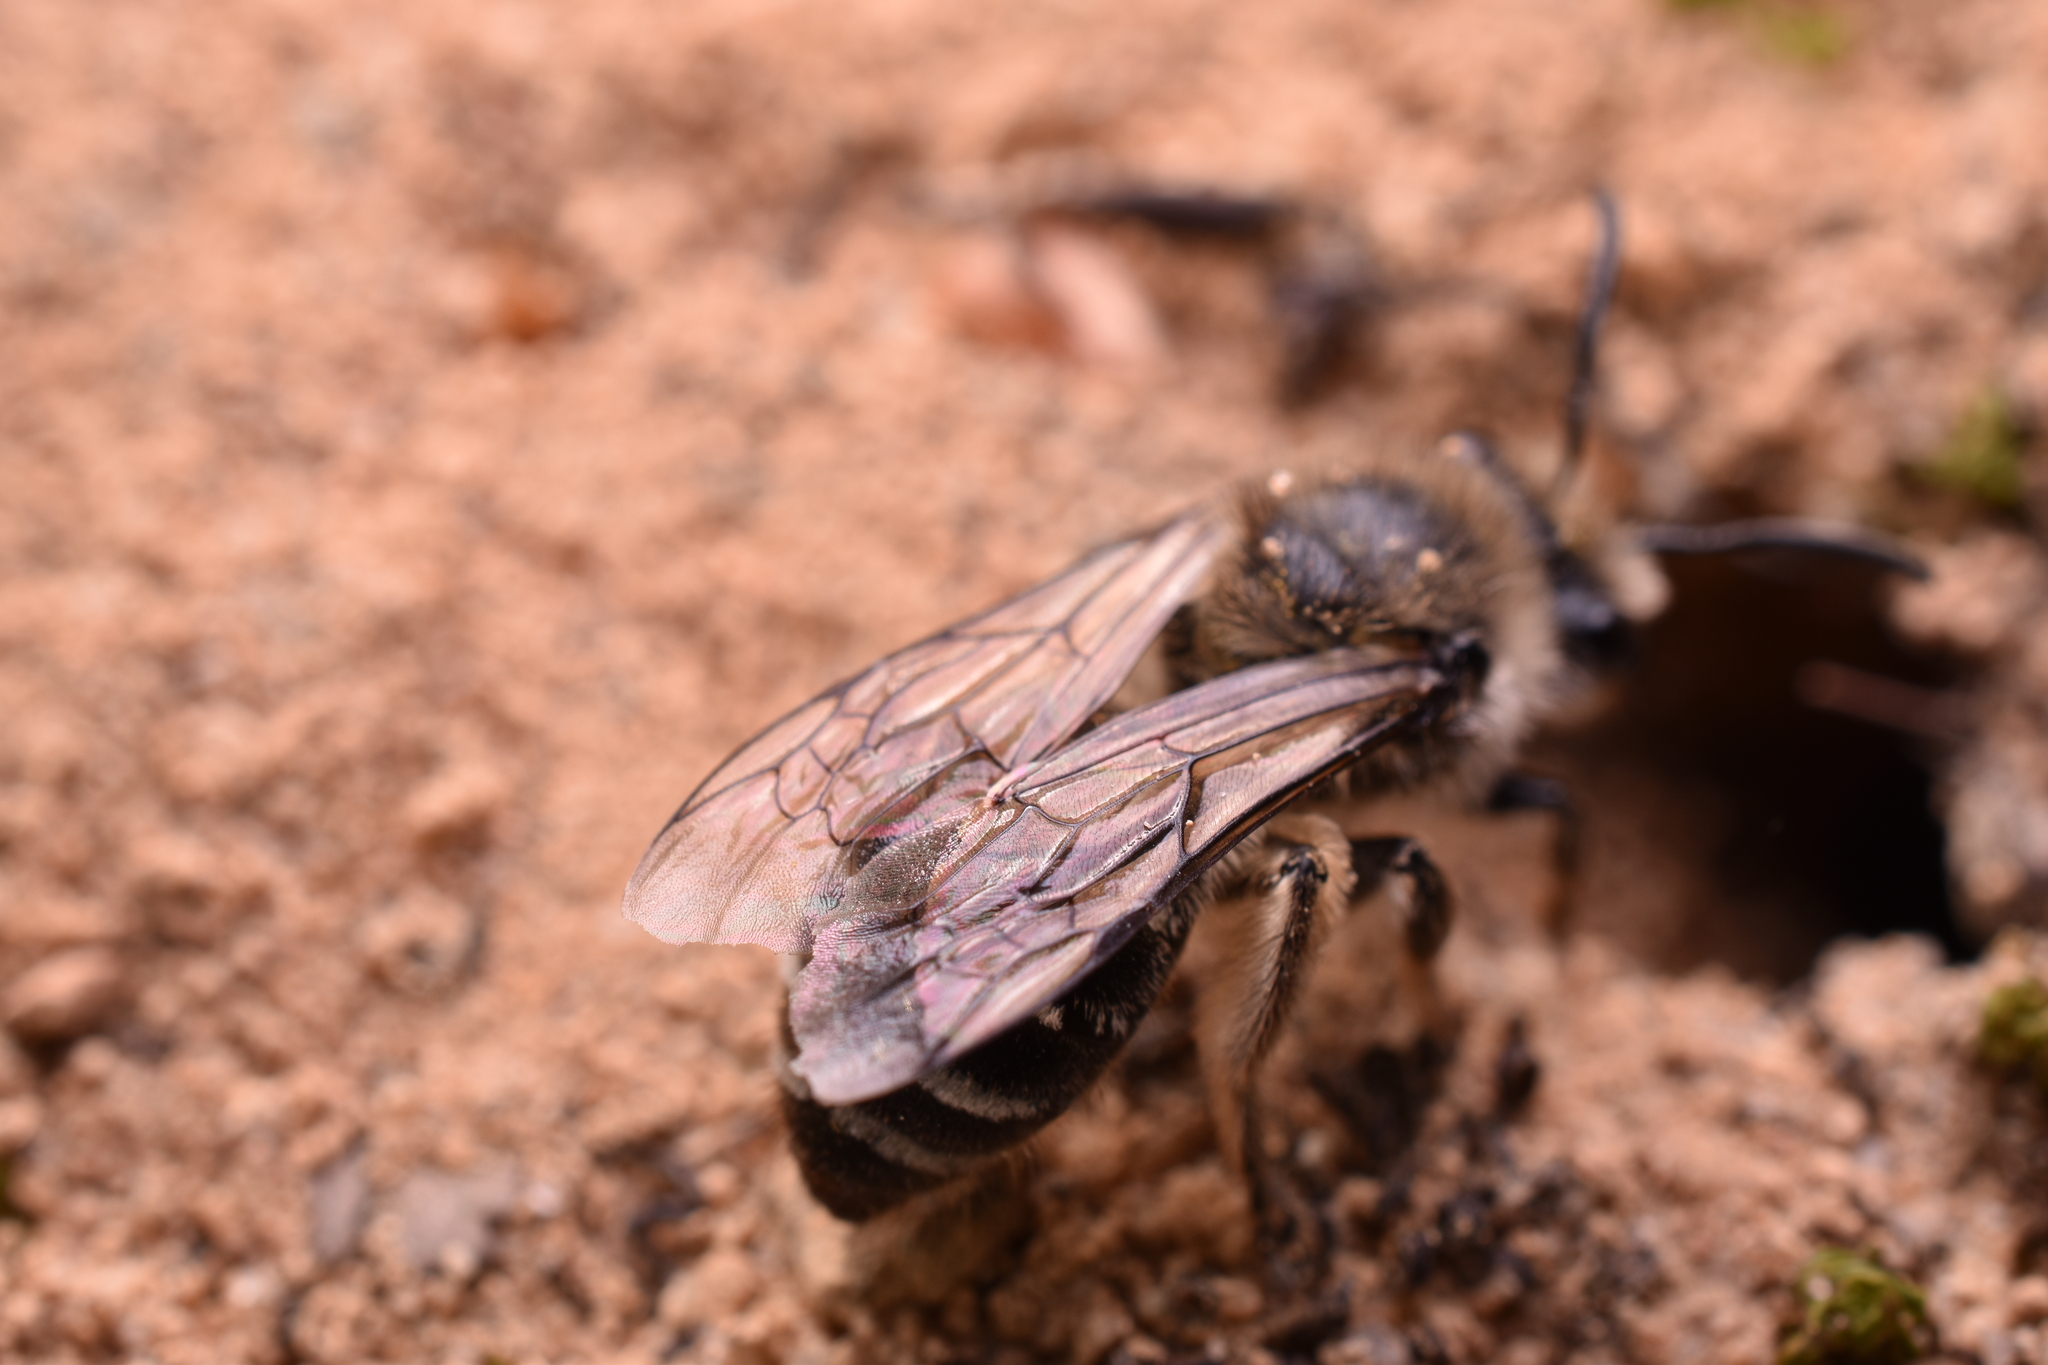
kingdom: Animalia
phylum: Arthropoda
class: Insecta
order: Hymenoptera
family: Colletidae
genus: Colletes
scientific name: Colletes inaequalis
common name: Unequal cellophane bee
